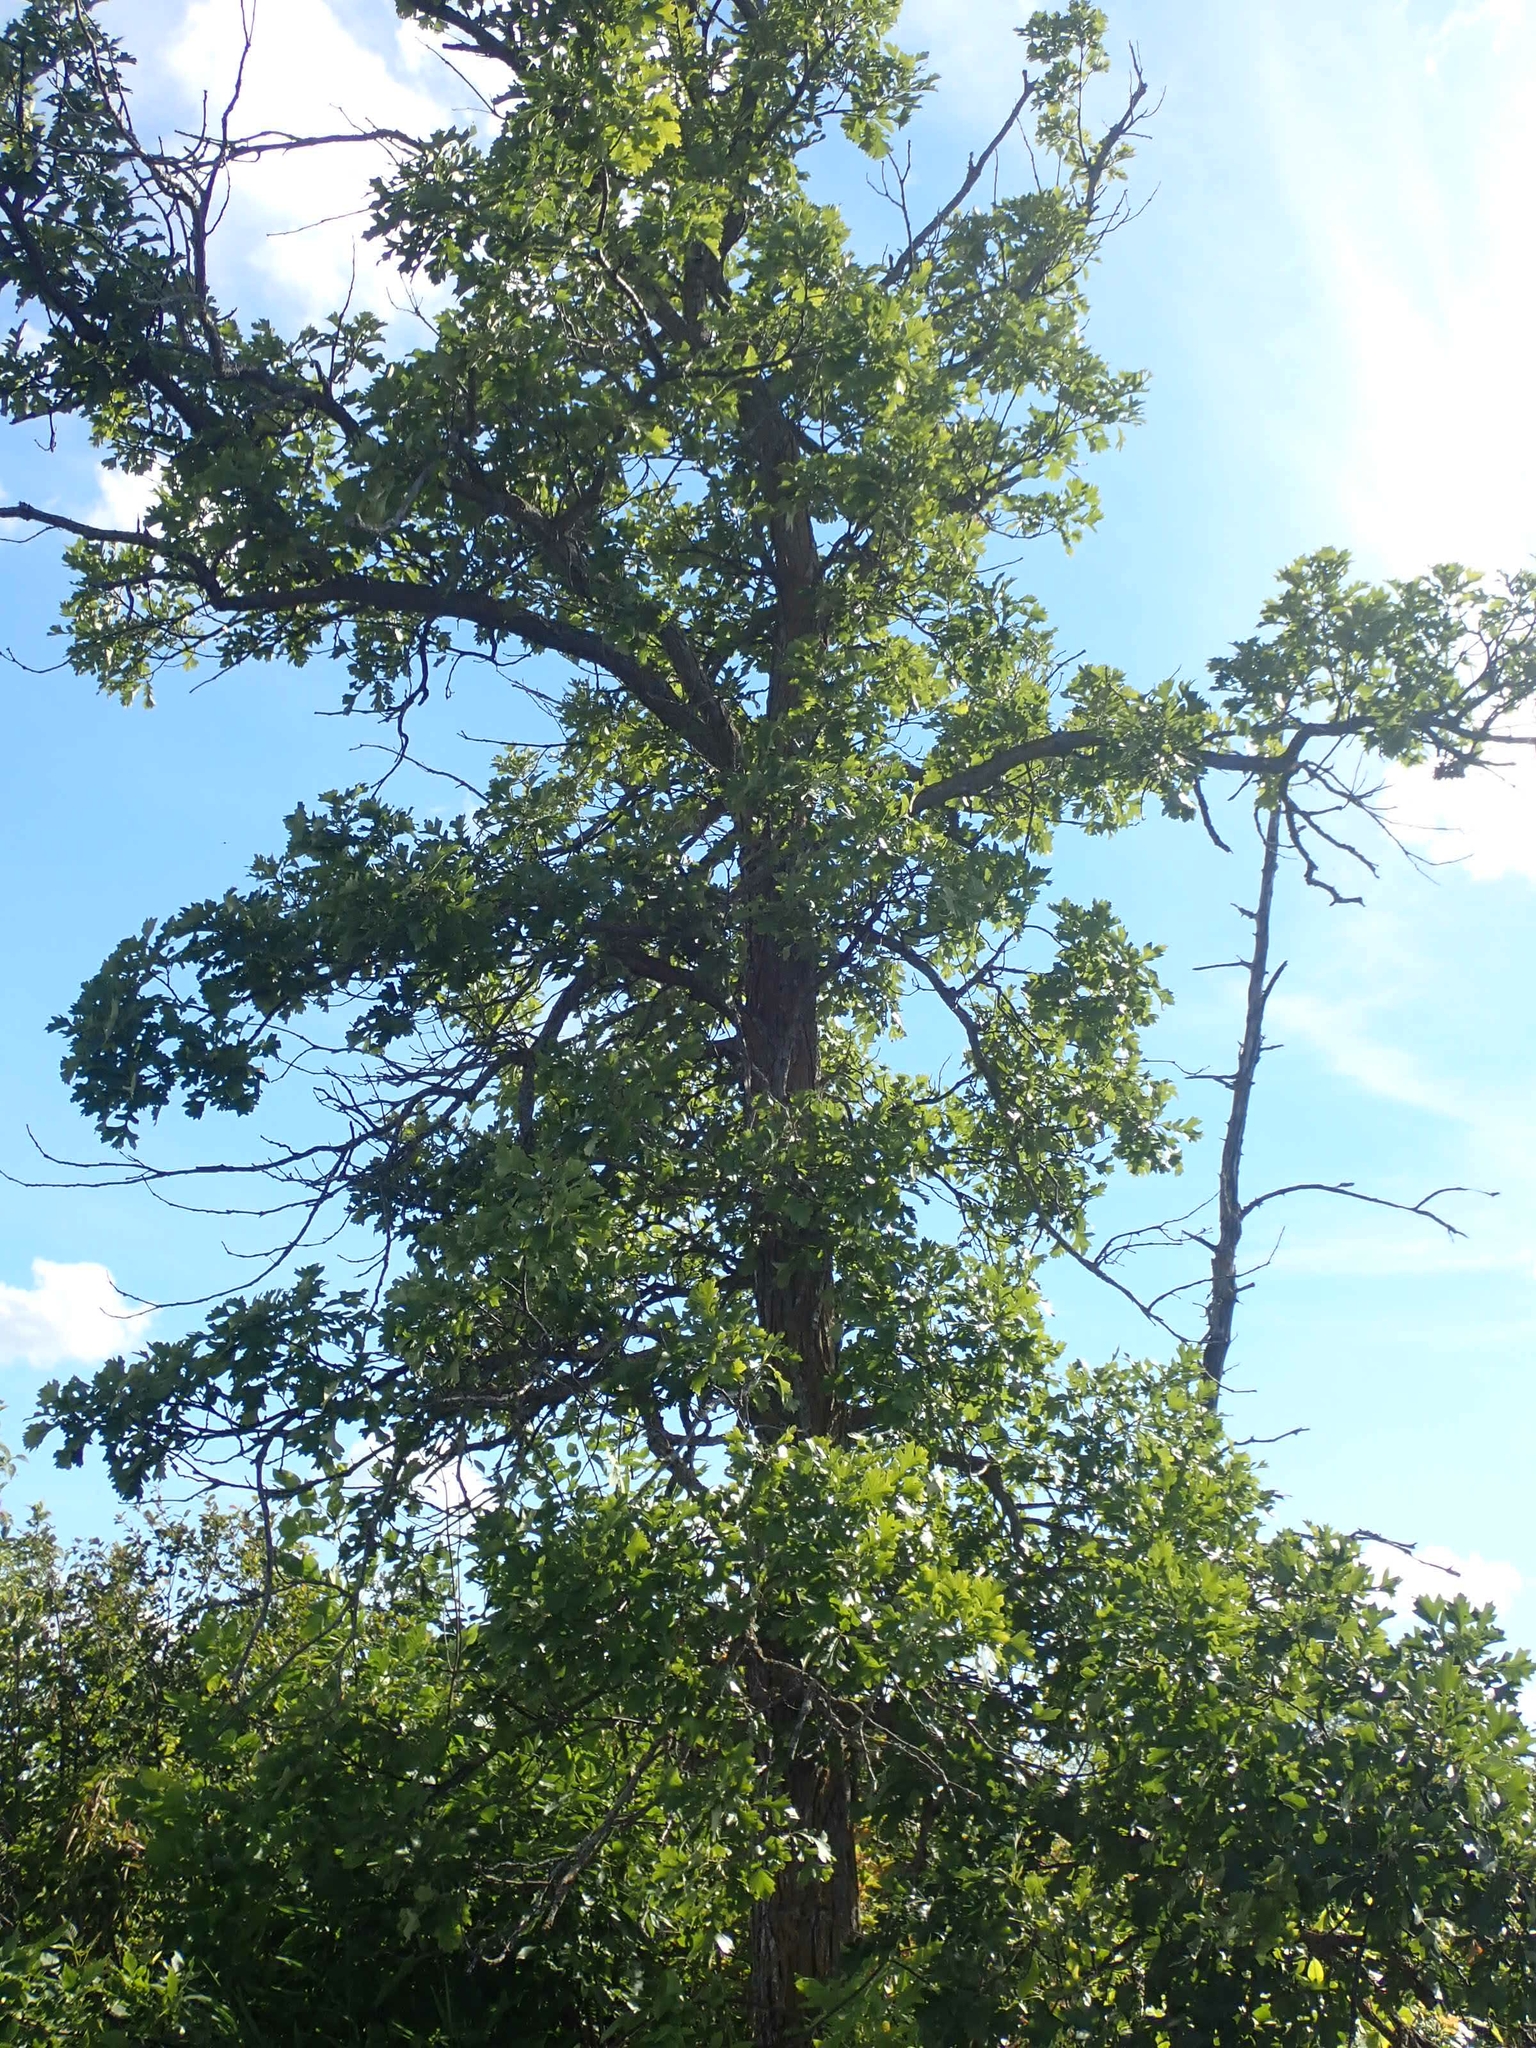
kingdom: Plantae
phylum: Tracheophyta
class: Magnoliopsida
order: Fagales
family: Fagaceae
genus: Quercus
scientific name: Quercus macrocarpa
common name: Bur oak
